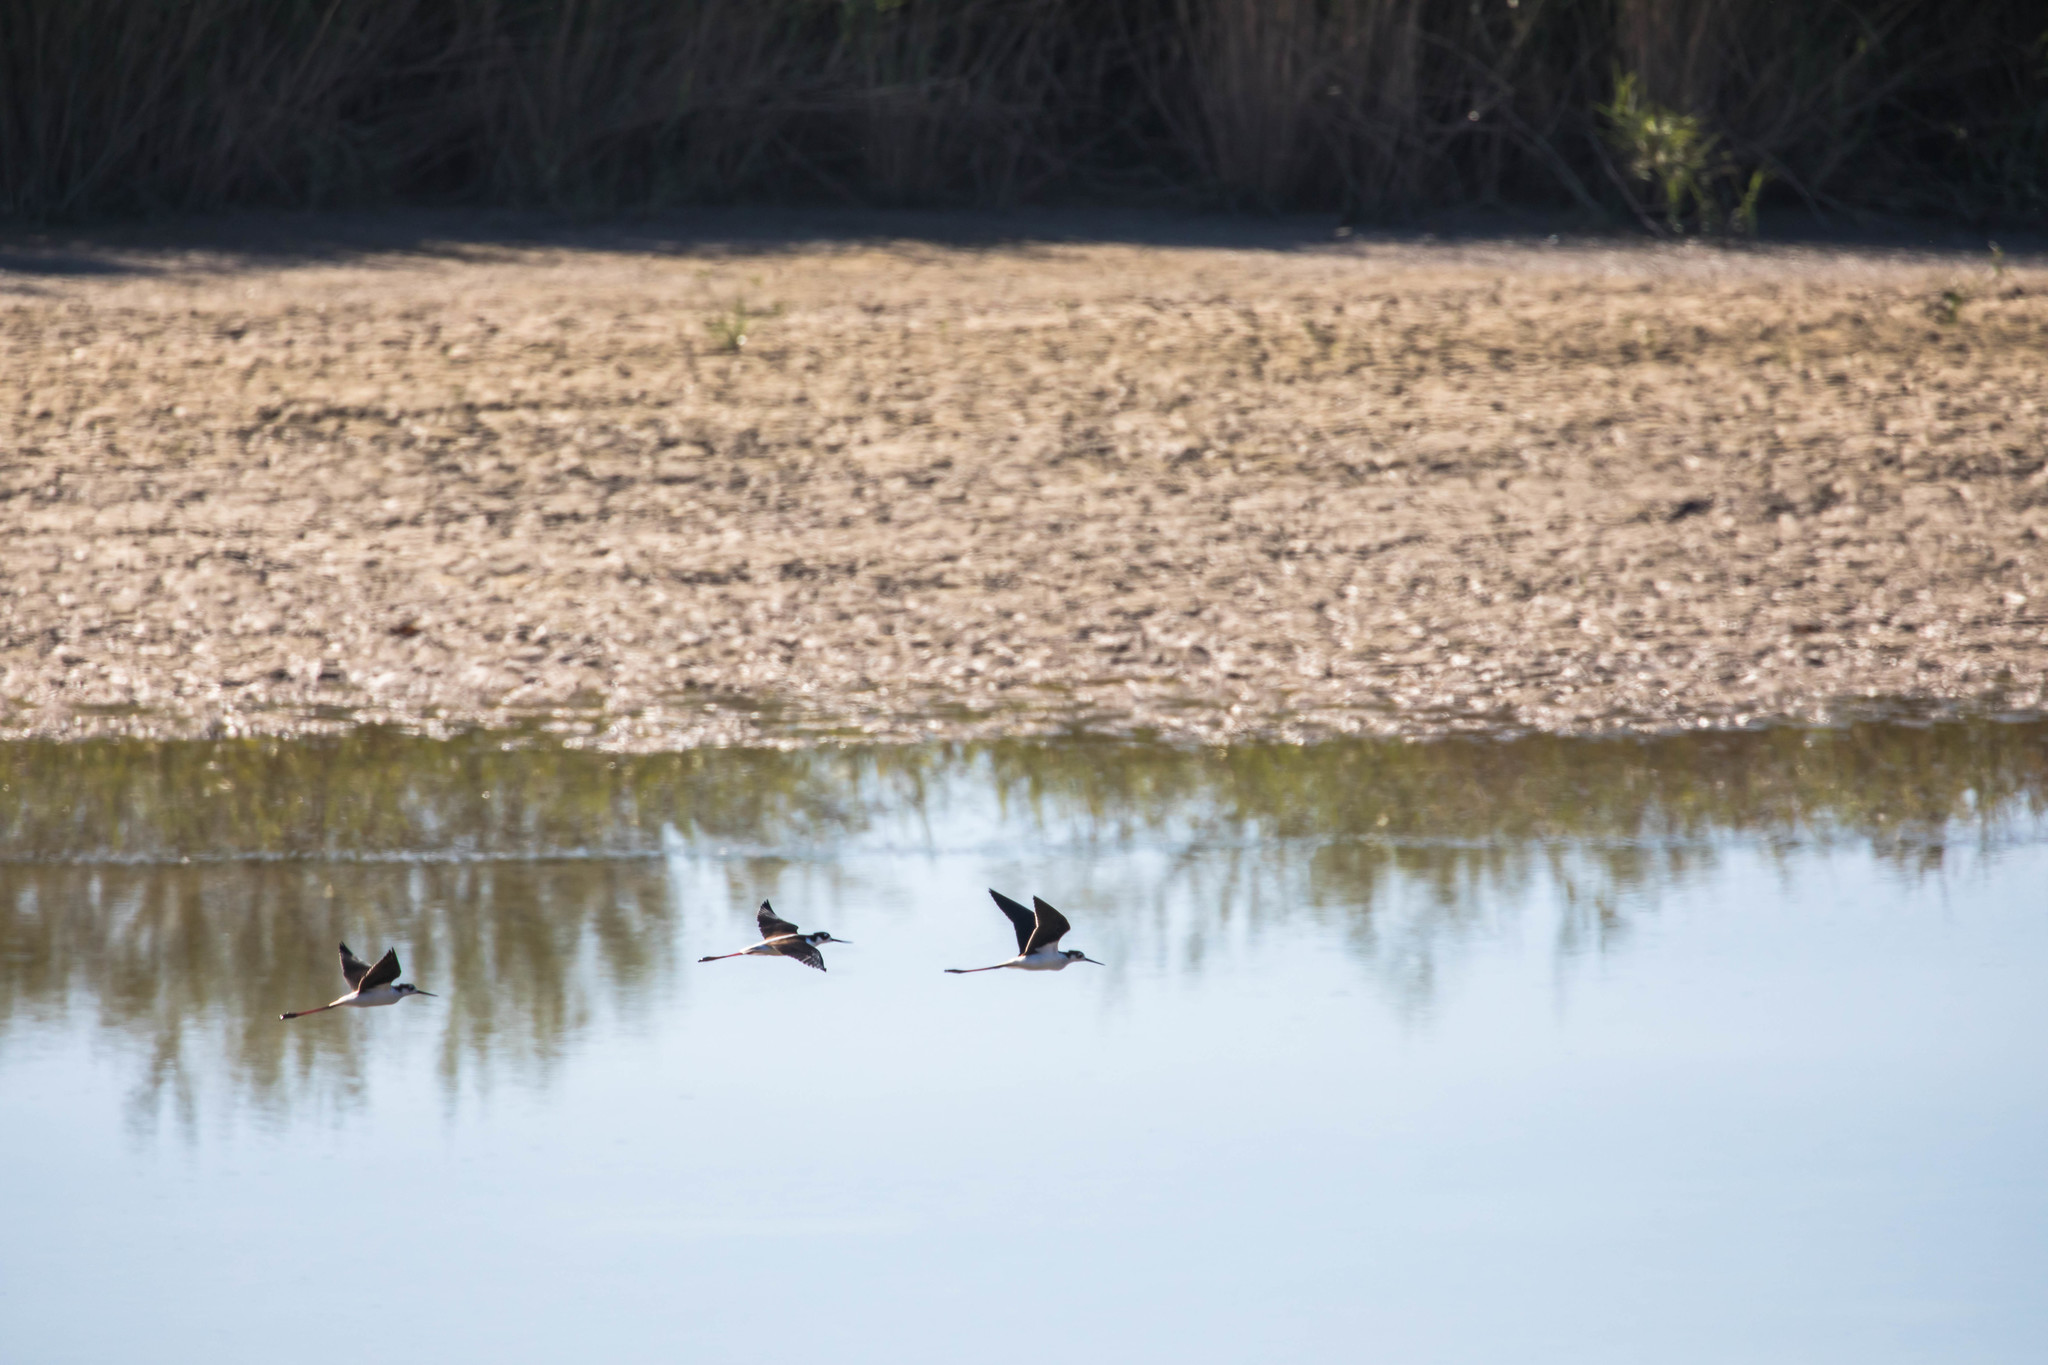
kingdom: Animalia
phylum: Chordata
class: Aves
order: Charadriiformes
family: Recurvirostridae
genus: Himantopus
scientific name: Himantopus mexicanus
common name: Black-necked stilt
